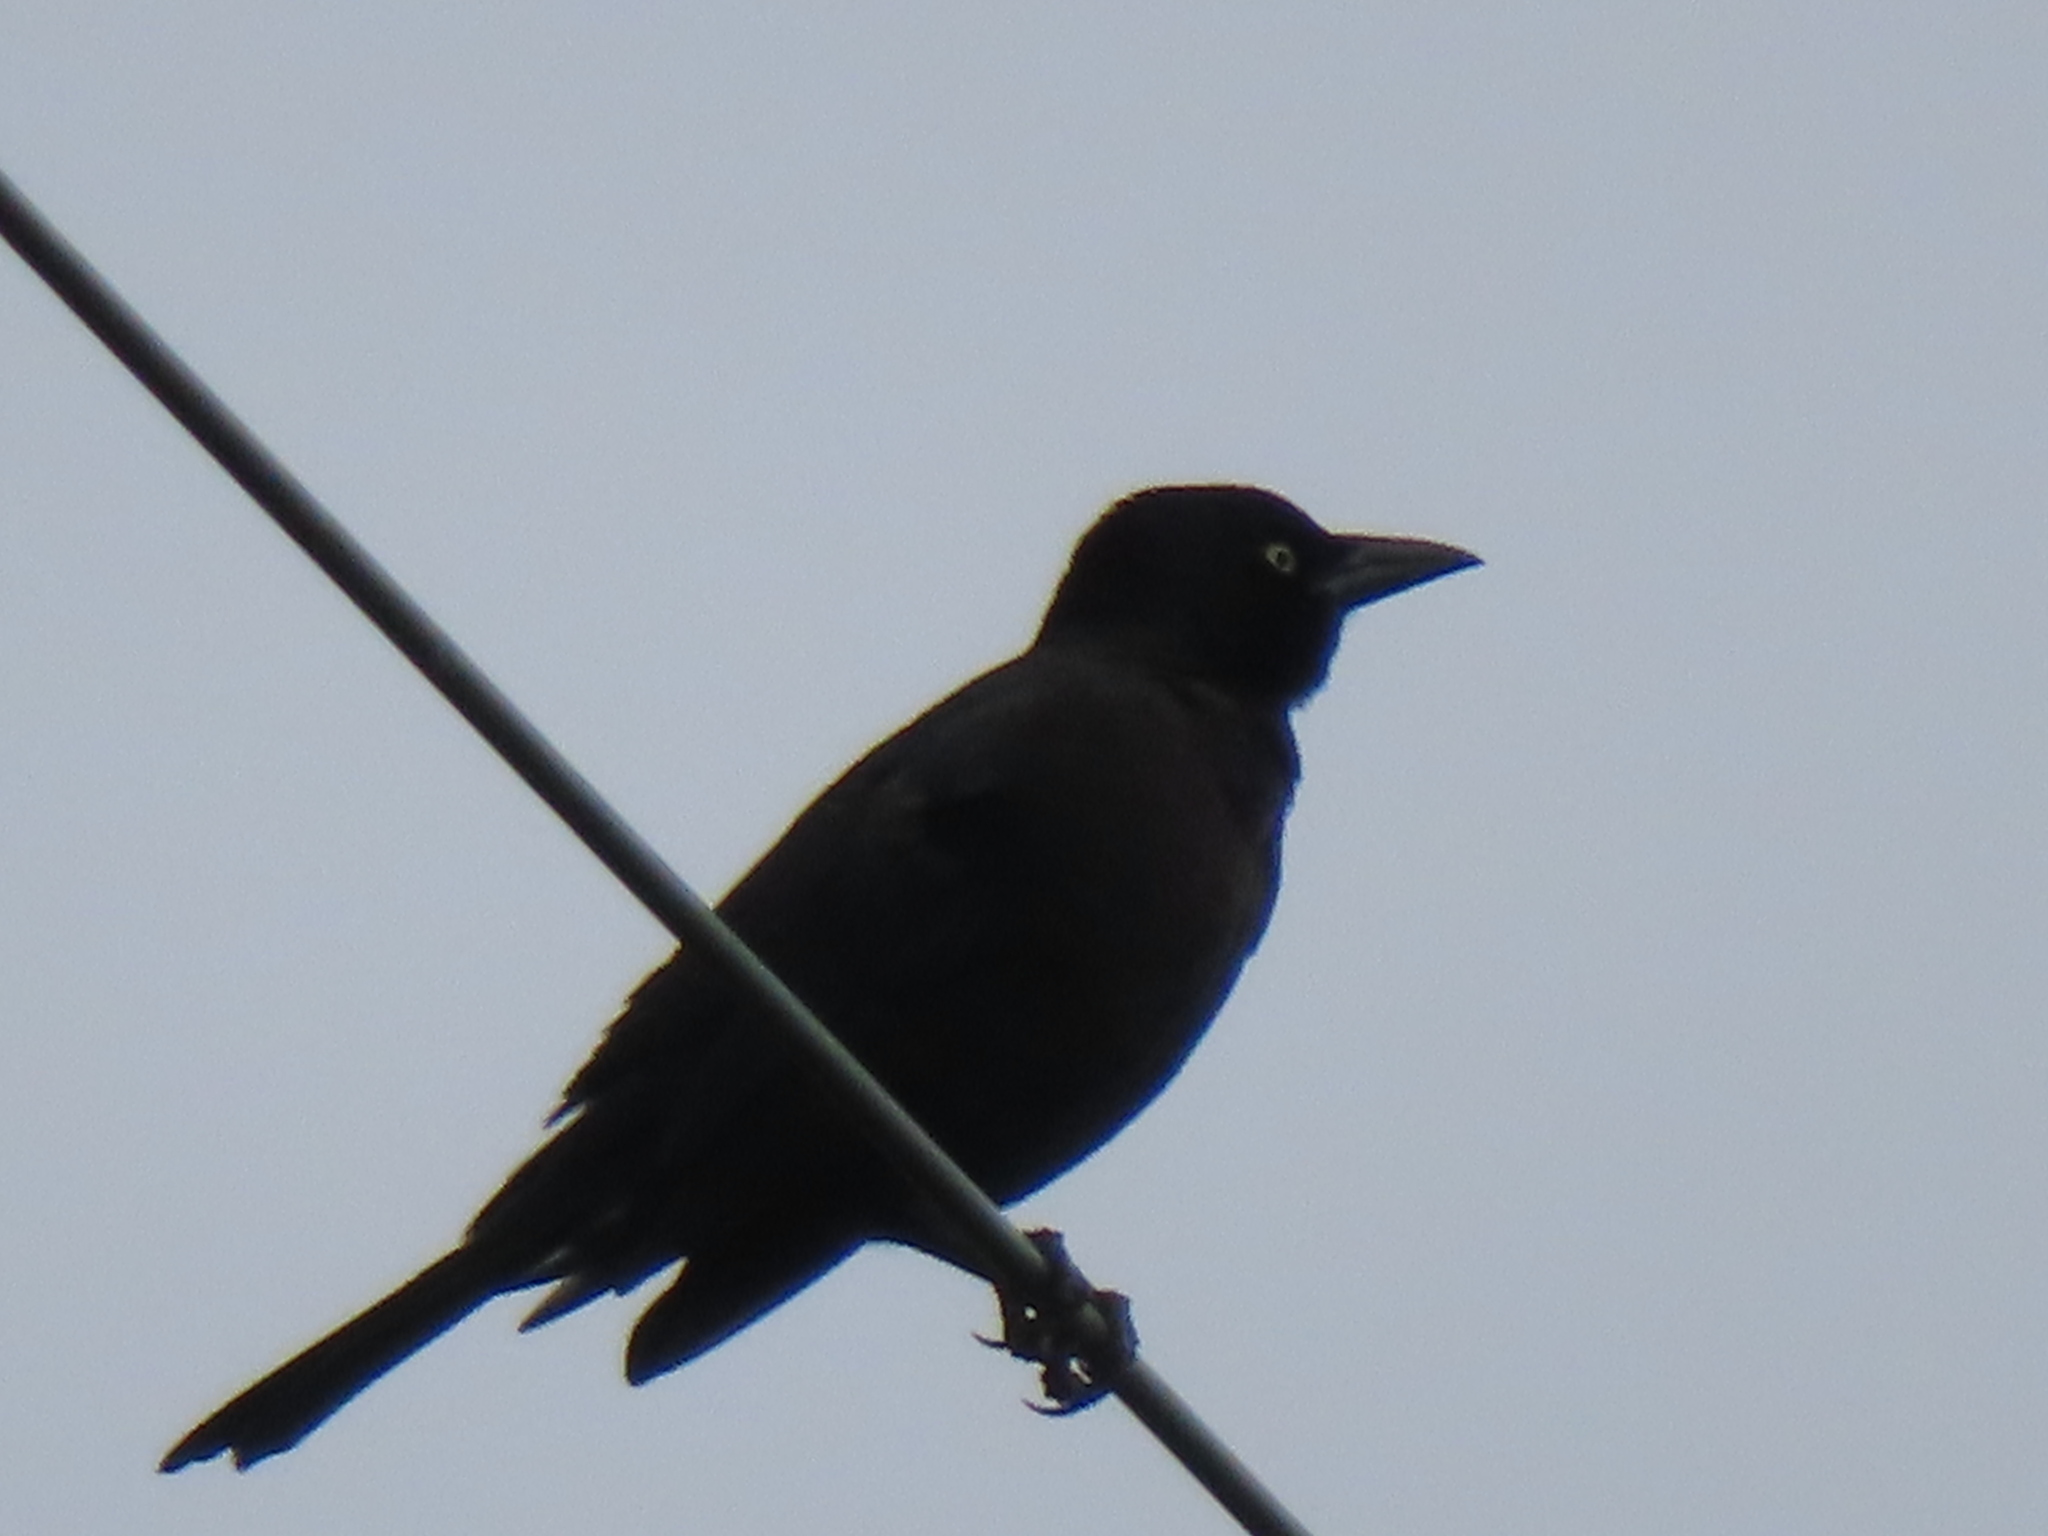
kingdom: Animalia
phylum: Chordata
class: Aves
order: Passeriformes
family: Icteridae
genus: Quiscalus
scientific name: Quiscalus quiscula
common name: Common grackle
